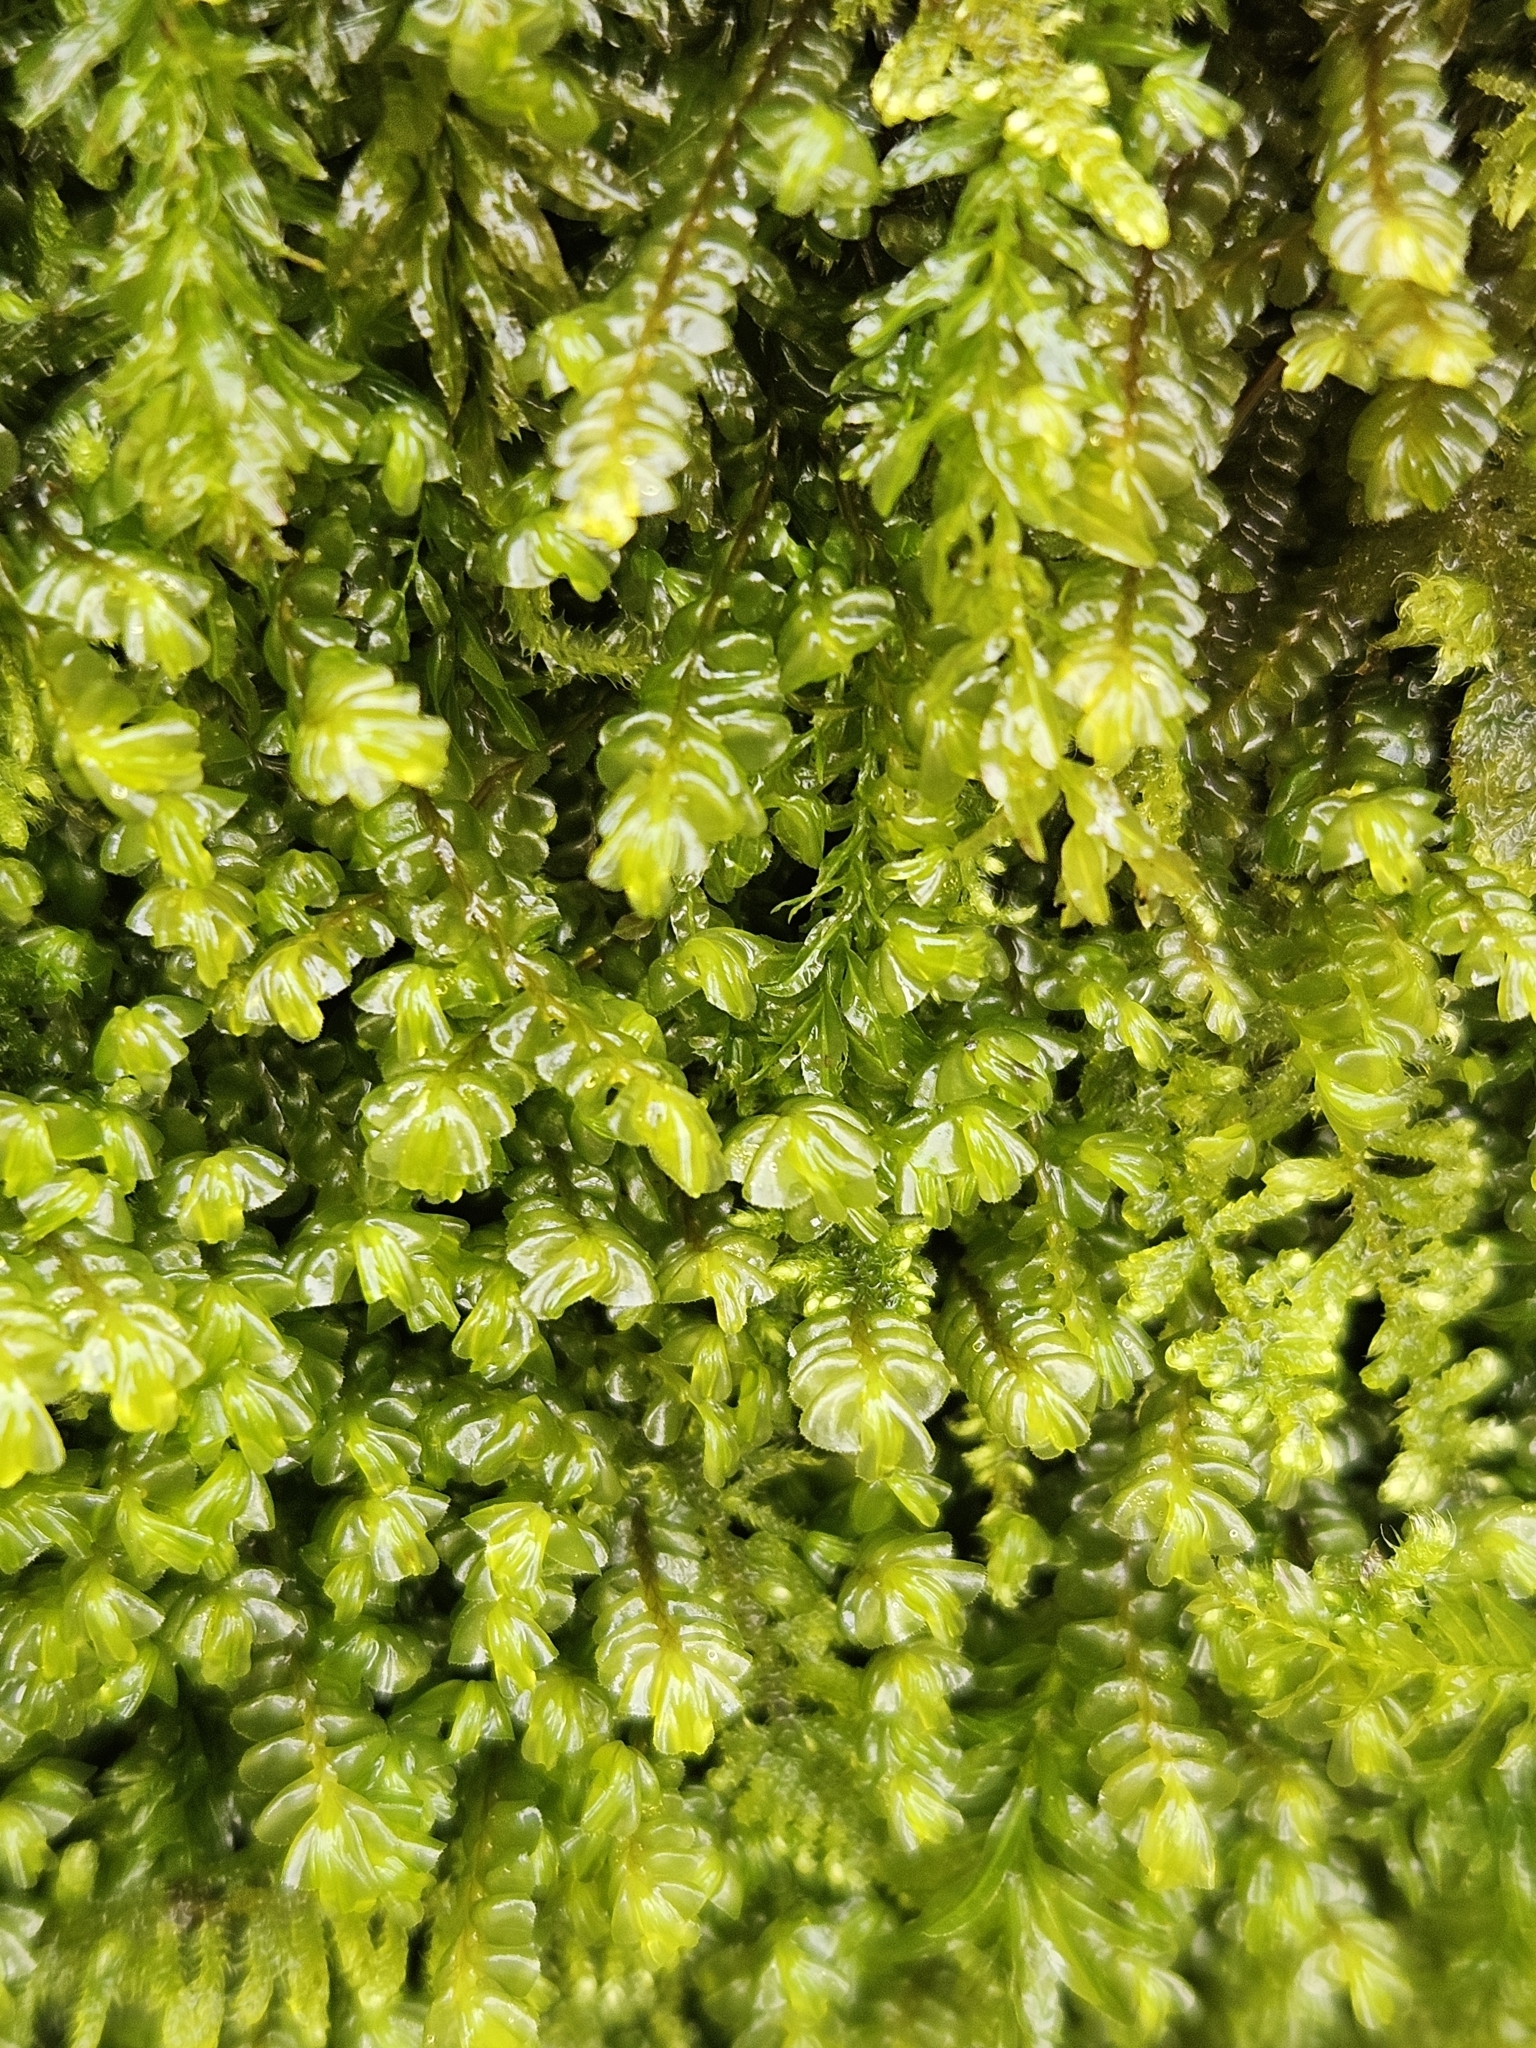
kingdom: Plantae
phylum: Marchantiophyta
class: Jungermanniopsida
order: Jungermanniales
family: Plagiochilaceae
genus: Plagiochila
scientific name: Plagiochila asplenioides
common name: Greater featherwort
